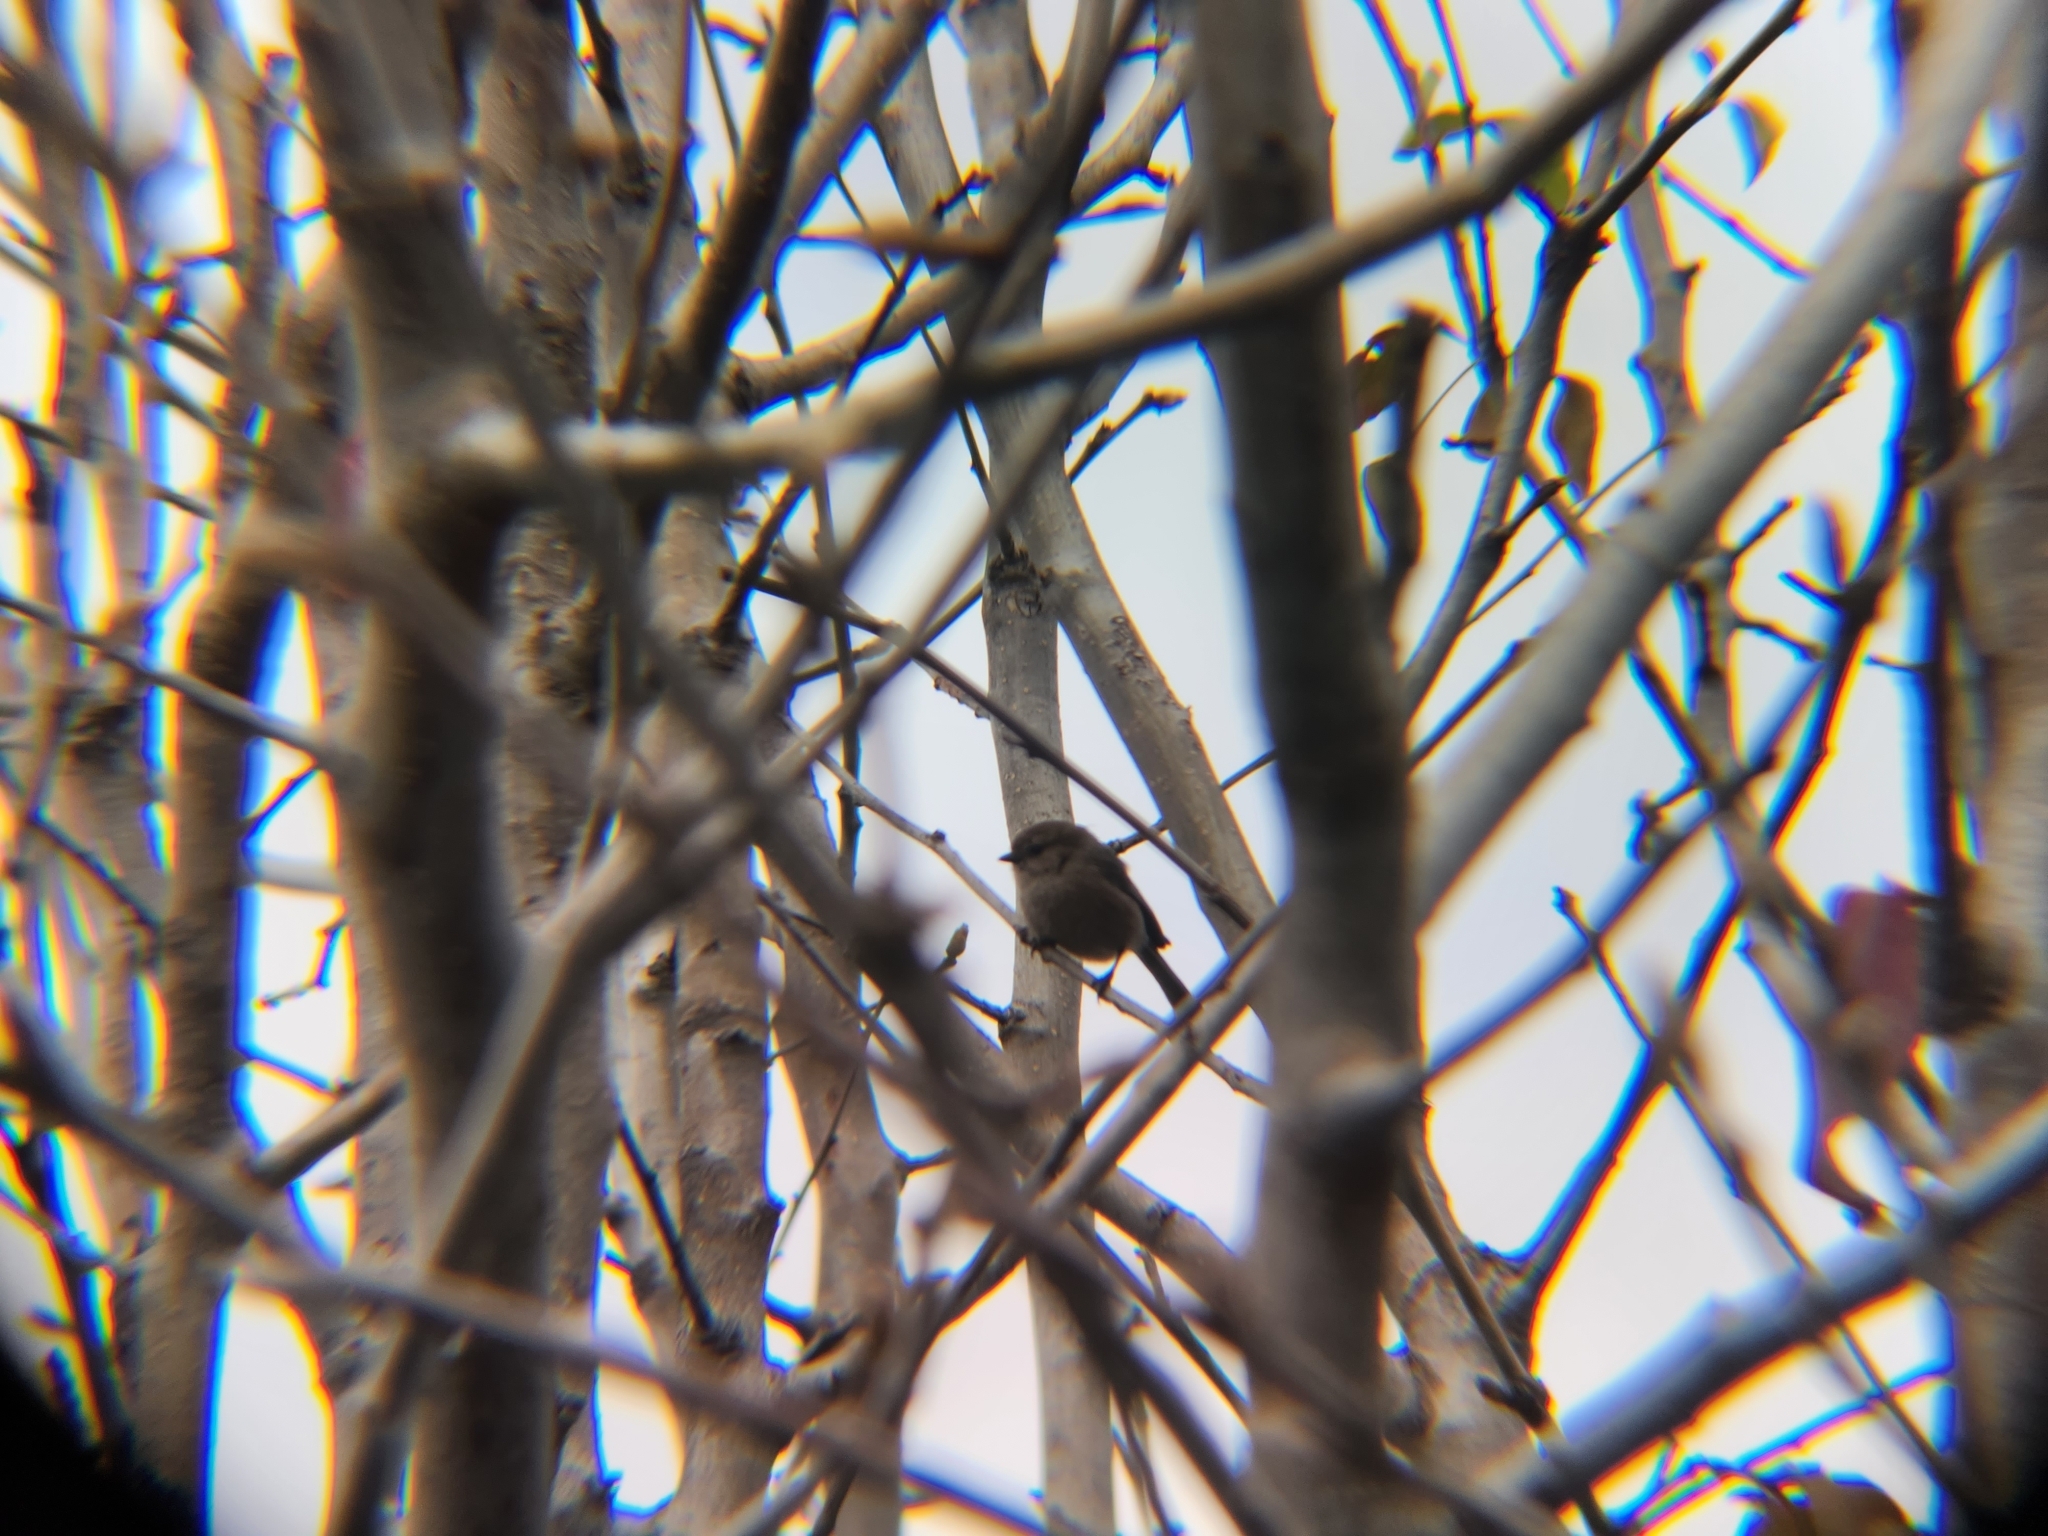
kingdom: Animalia
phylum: Chordata
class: Aves
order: Passeriformes
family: Aegithalidae
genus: Psaltriparus
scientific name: Psaltriparus minimus
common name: American bushtit
